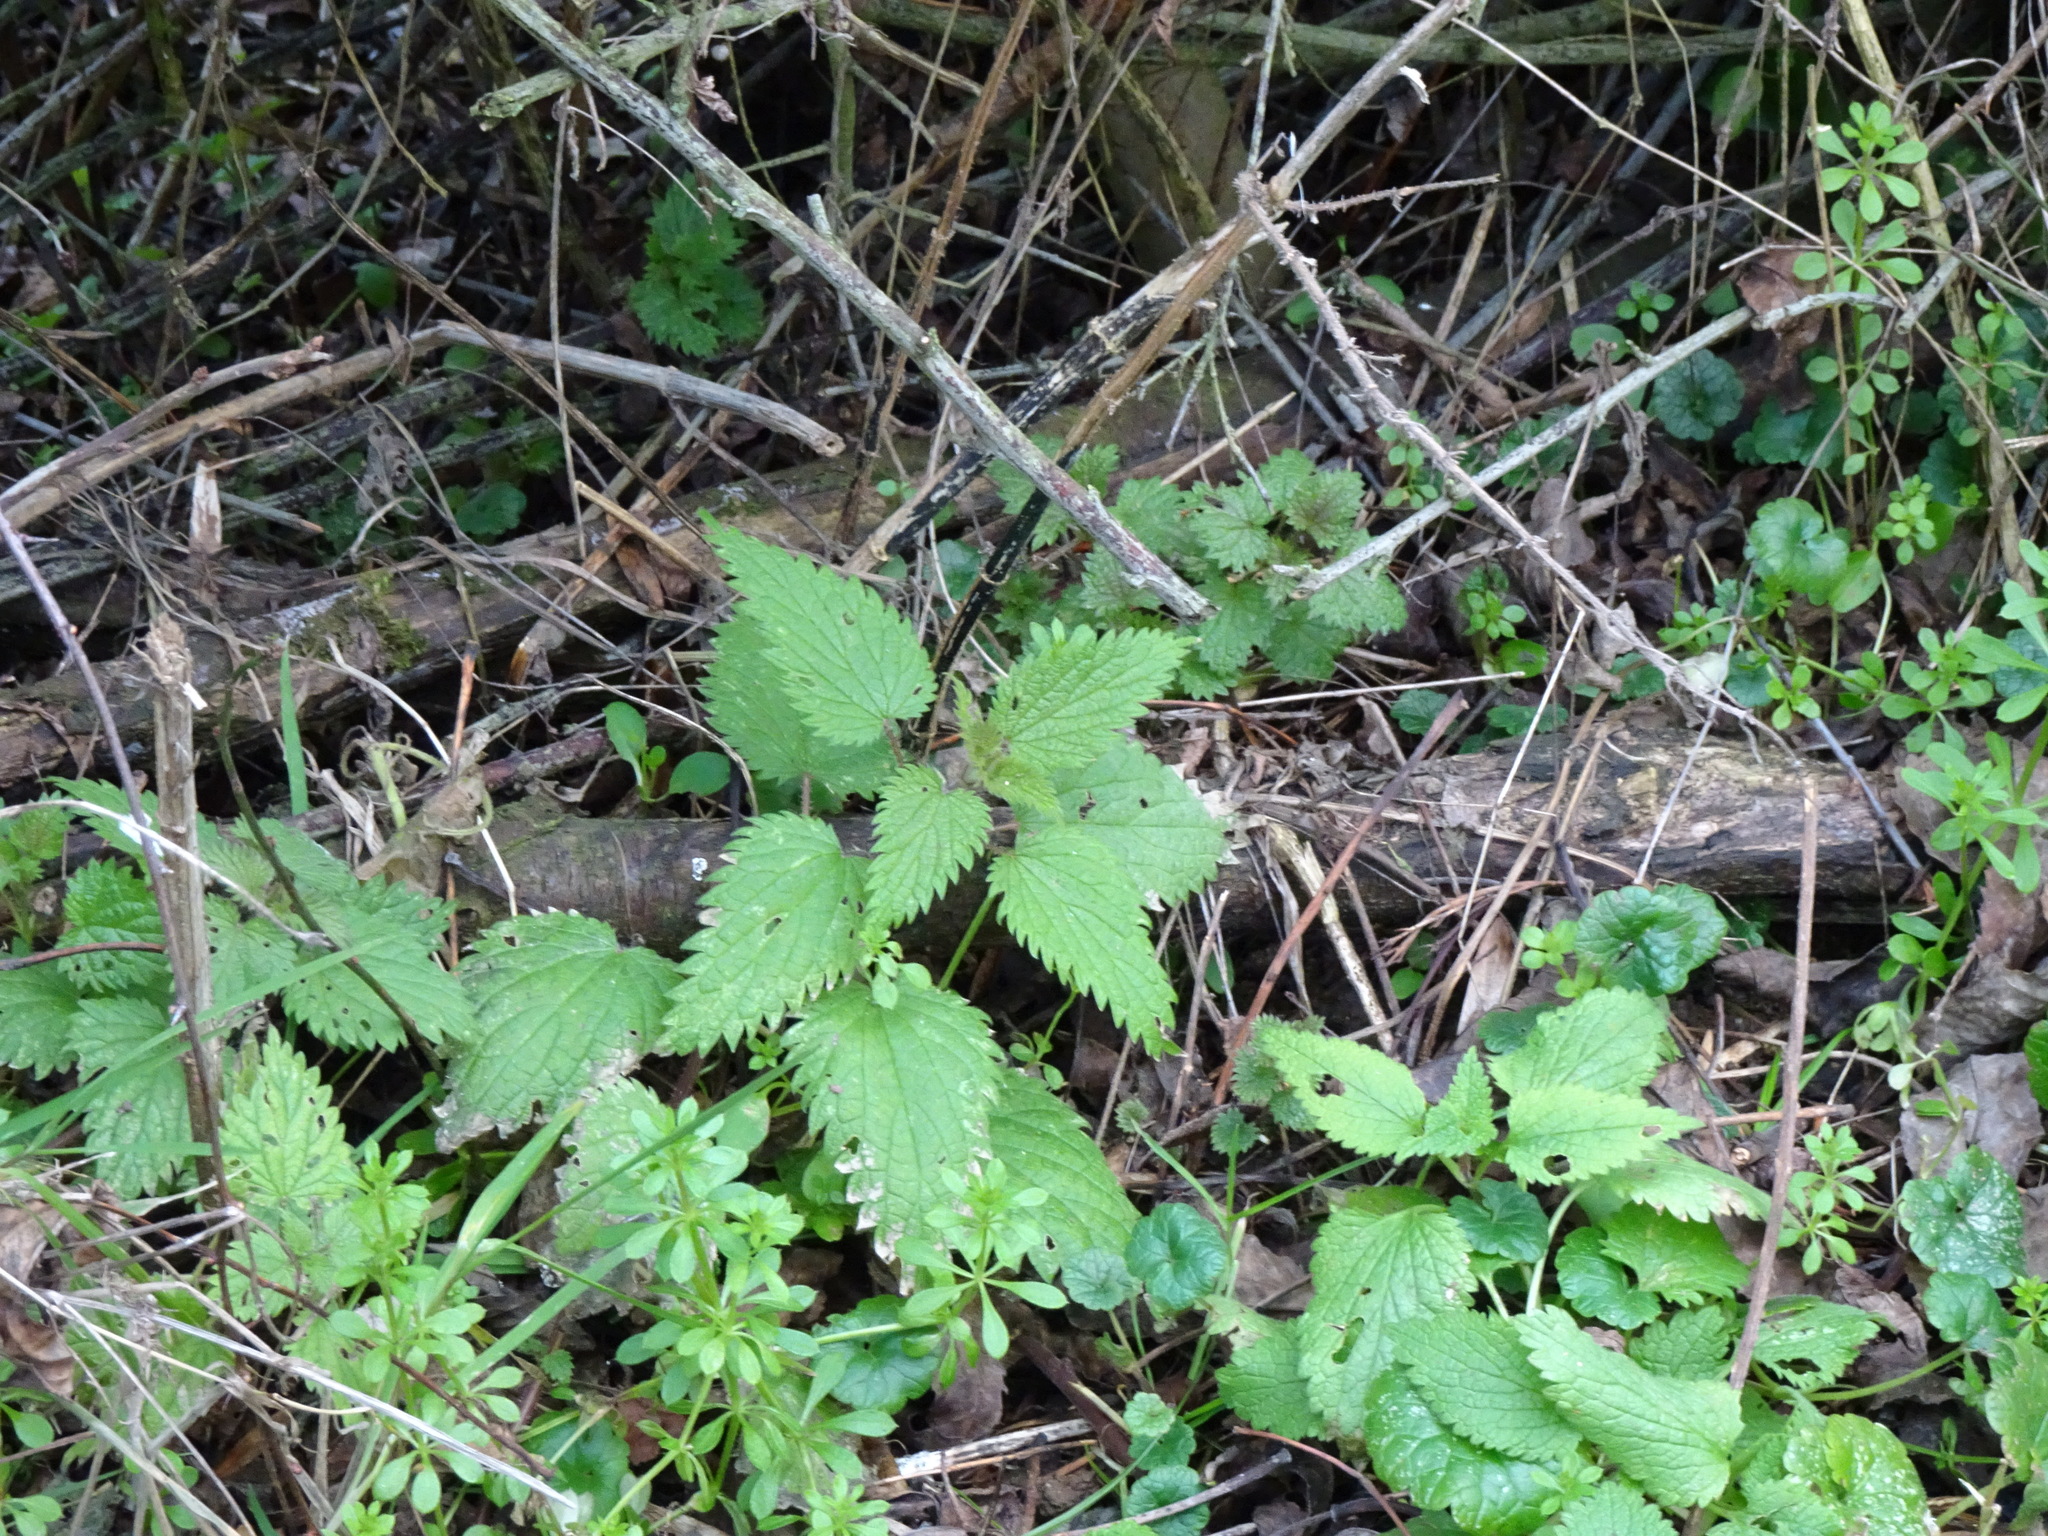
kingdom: Plantae
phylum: Tracheophyta
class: Magnoliopsida
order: Rosales
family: Urticaceae
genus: Urtica
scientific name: Urtica dioica
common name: Common nettle
